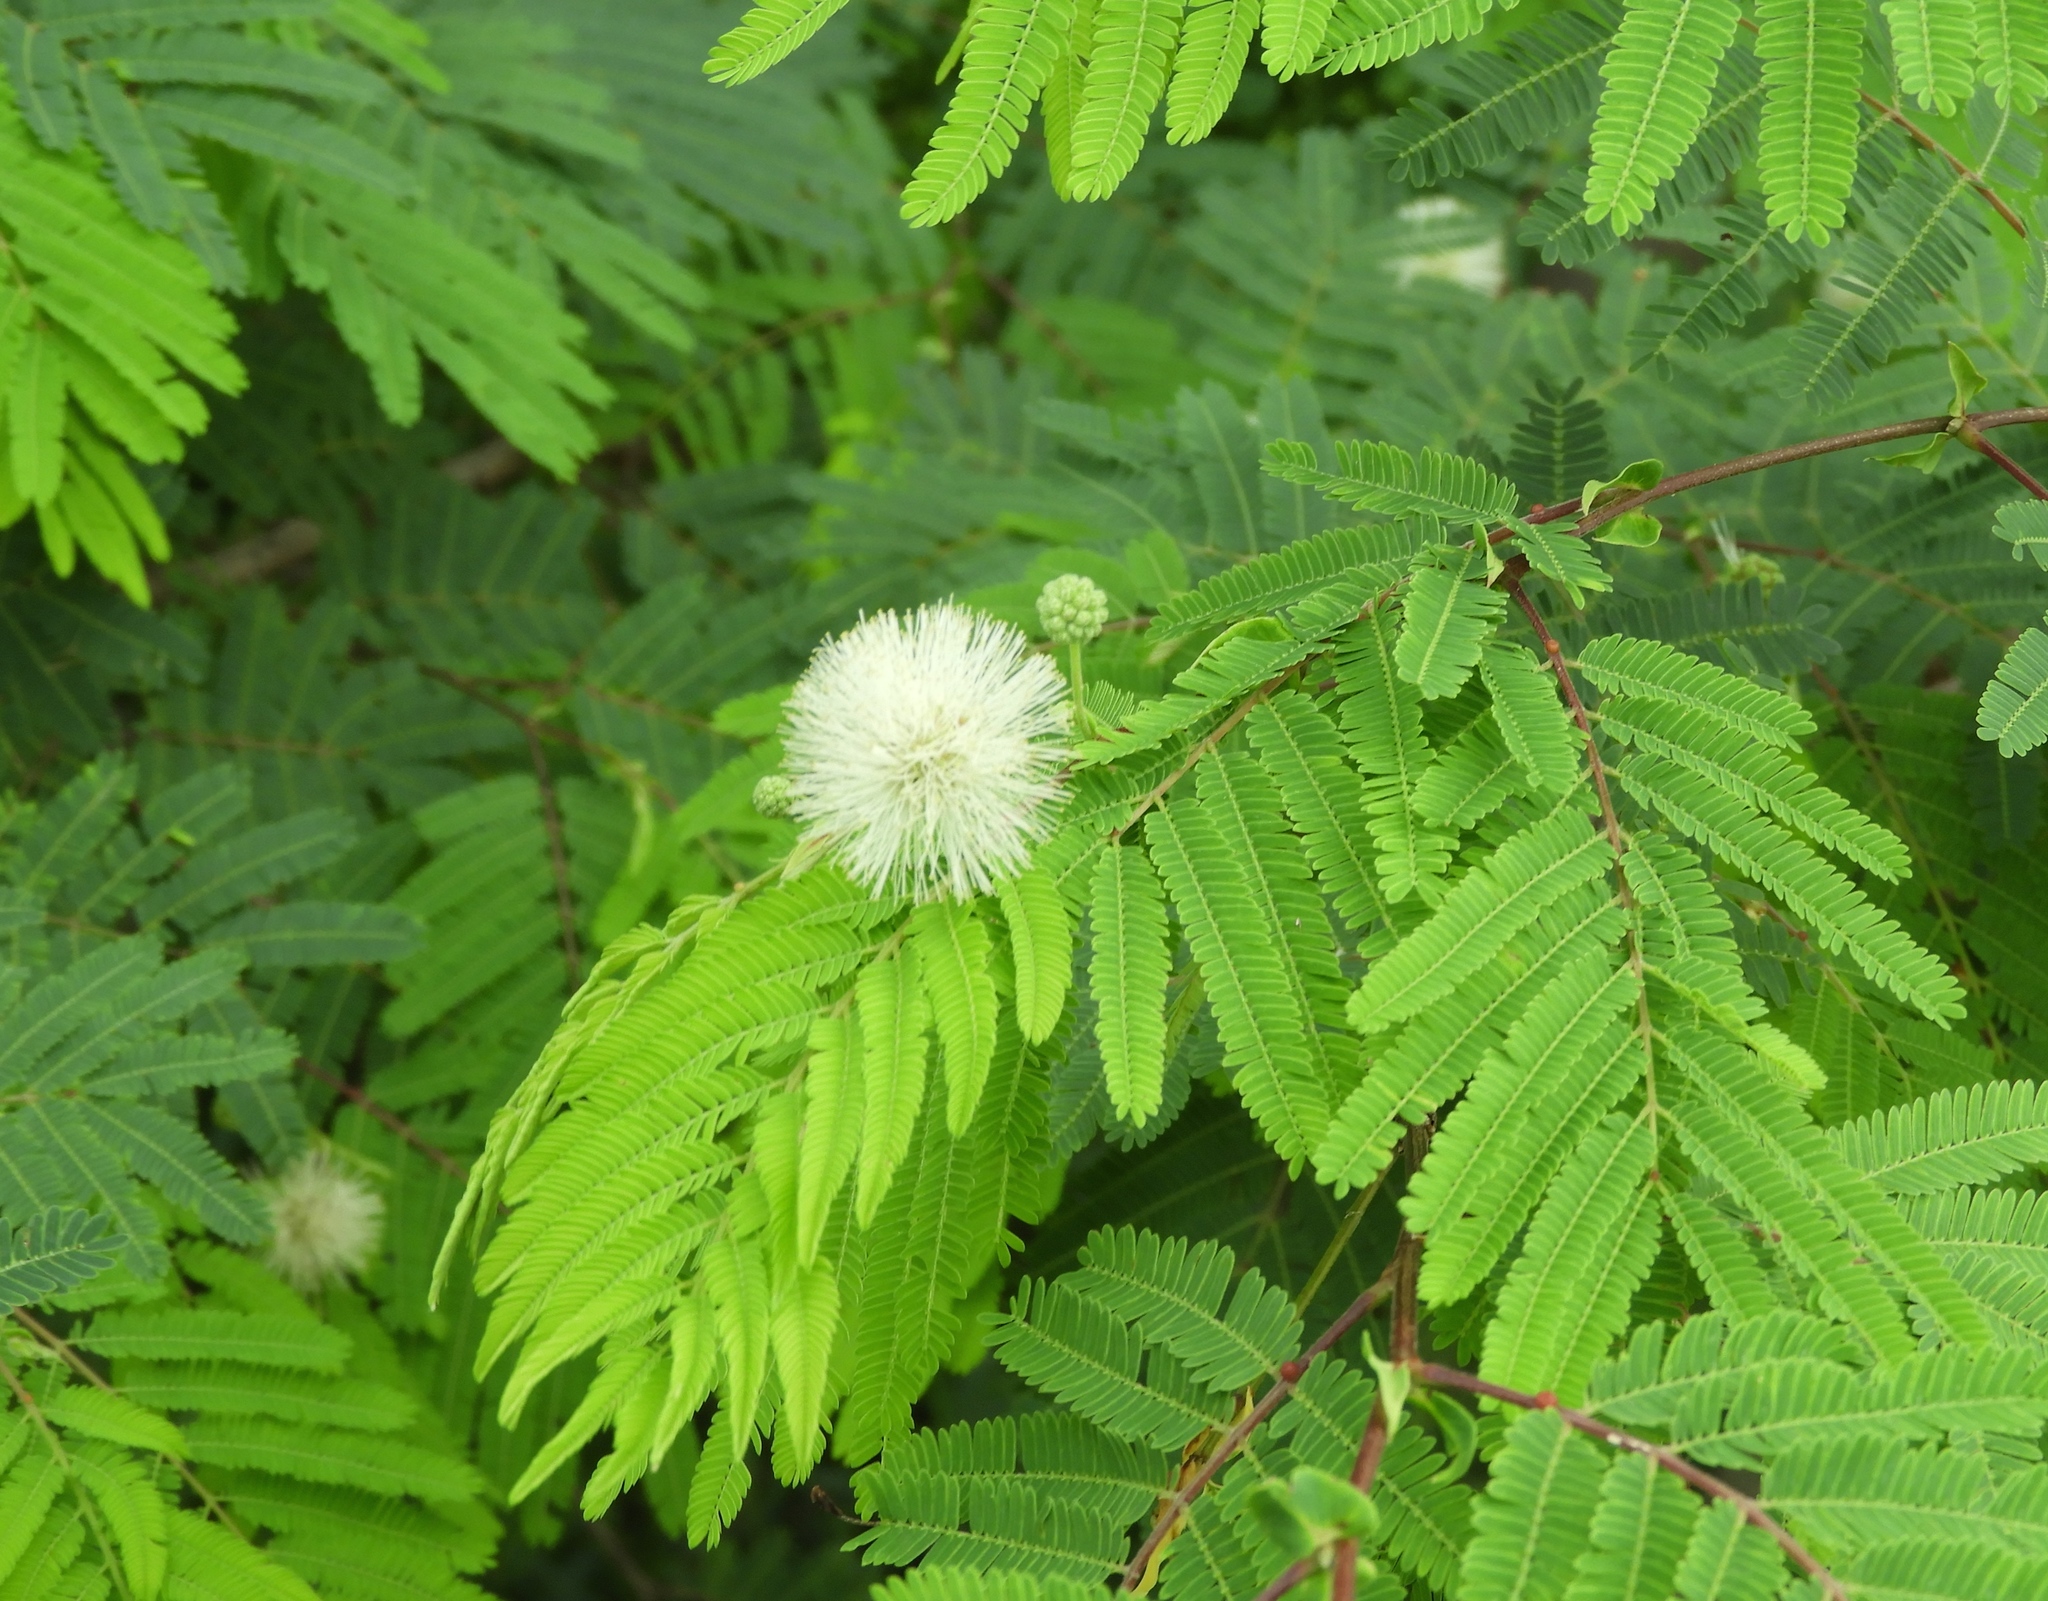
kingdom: Plantae
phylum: Tracheophyta
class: Magnoliopsida
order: Fabales
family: Fabaceae
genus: Leucaena
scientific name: Leucaena leucocephala
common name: White leadtree
